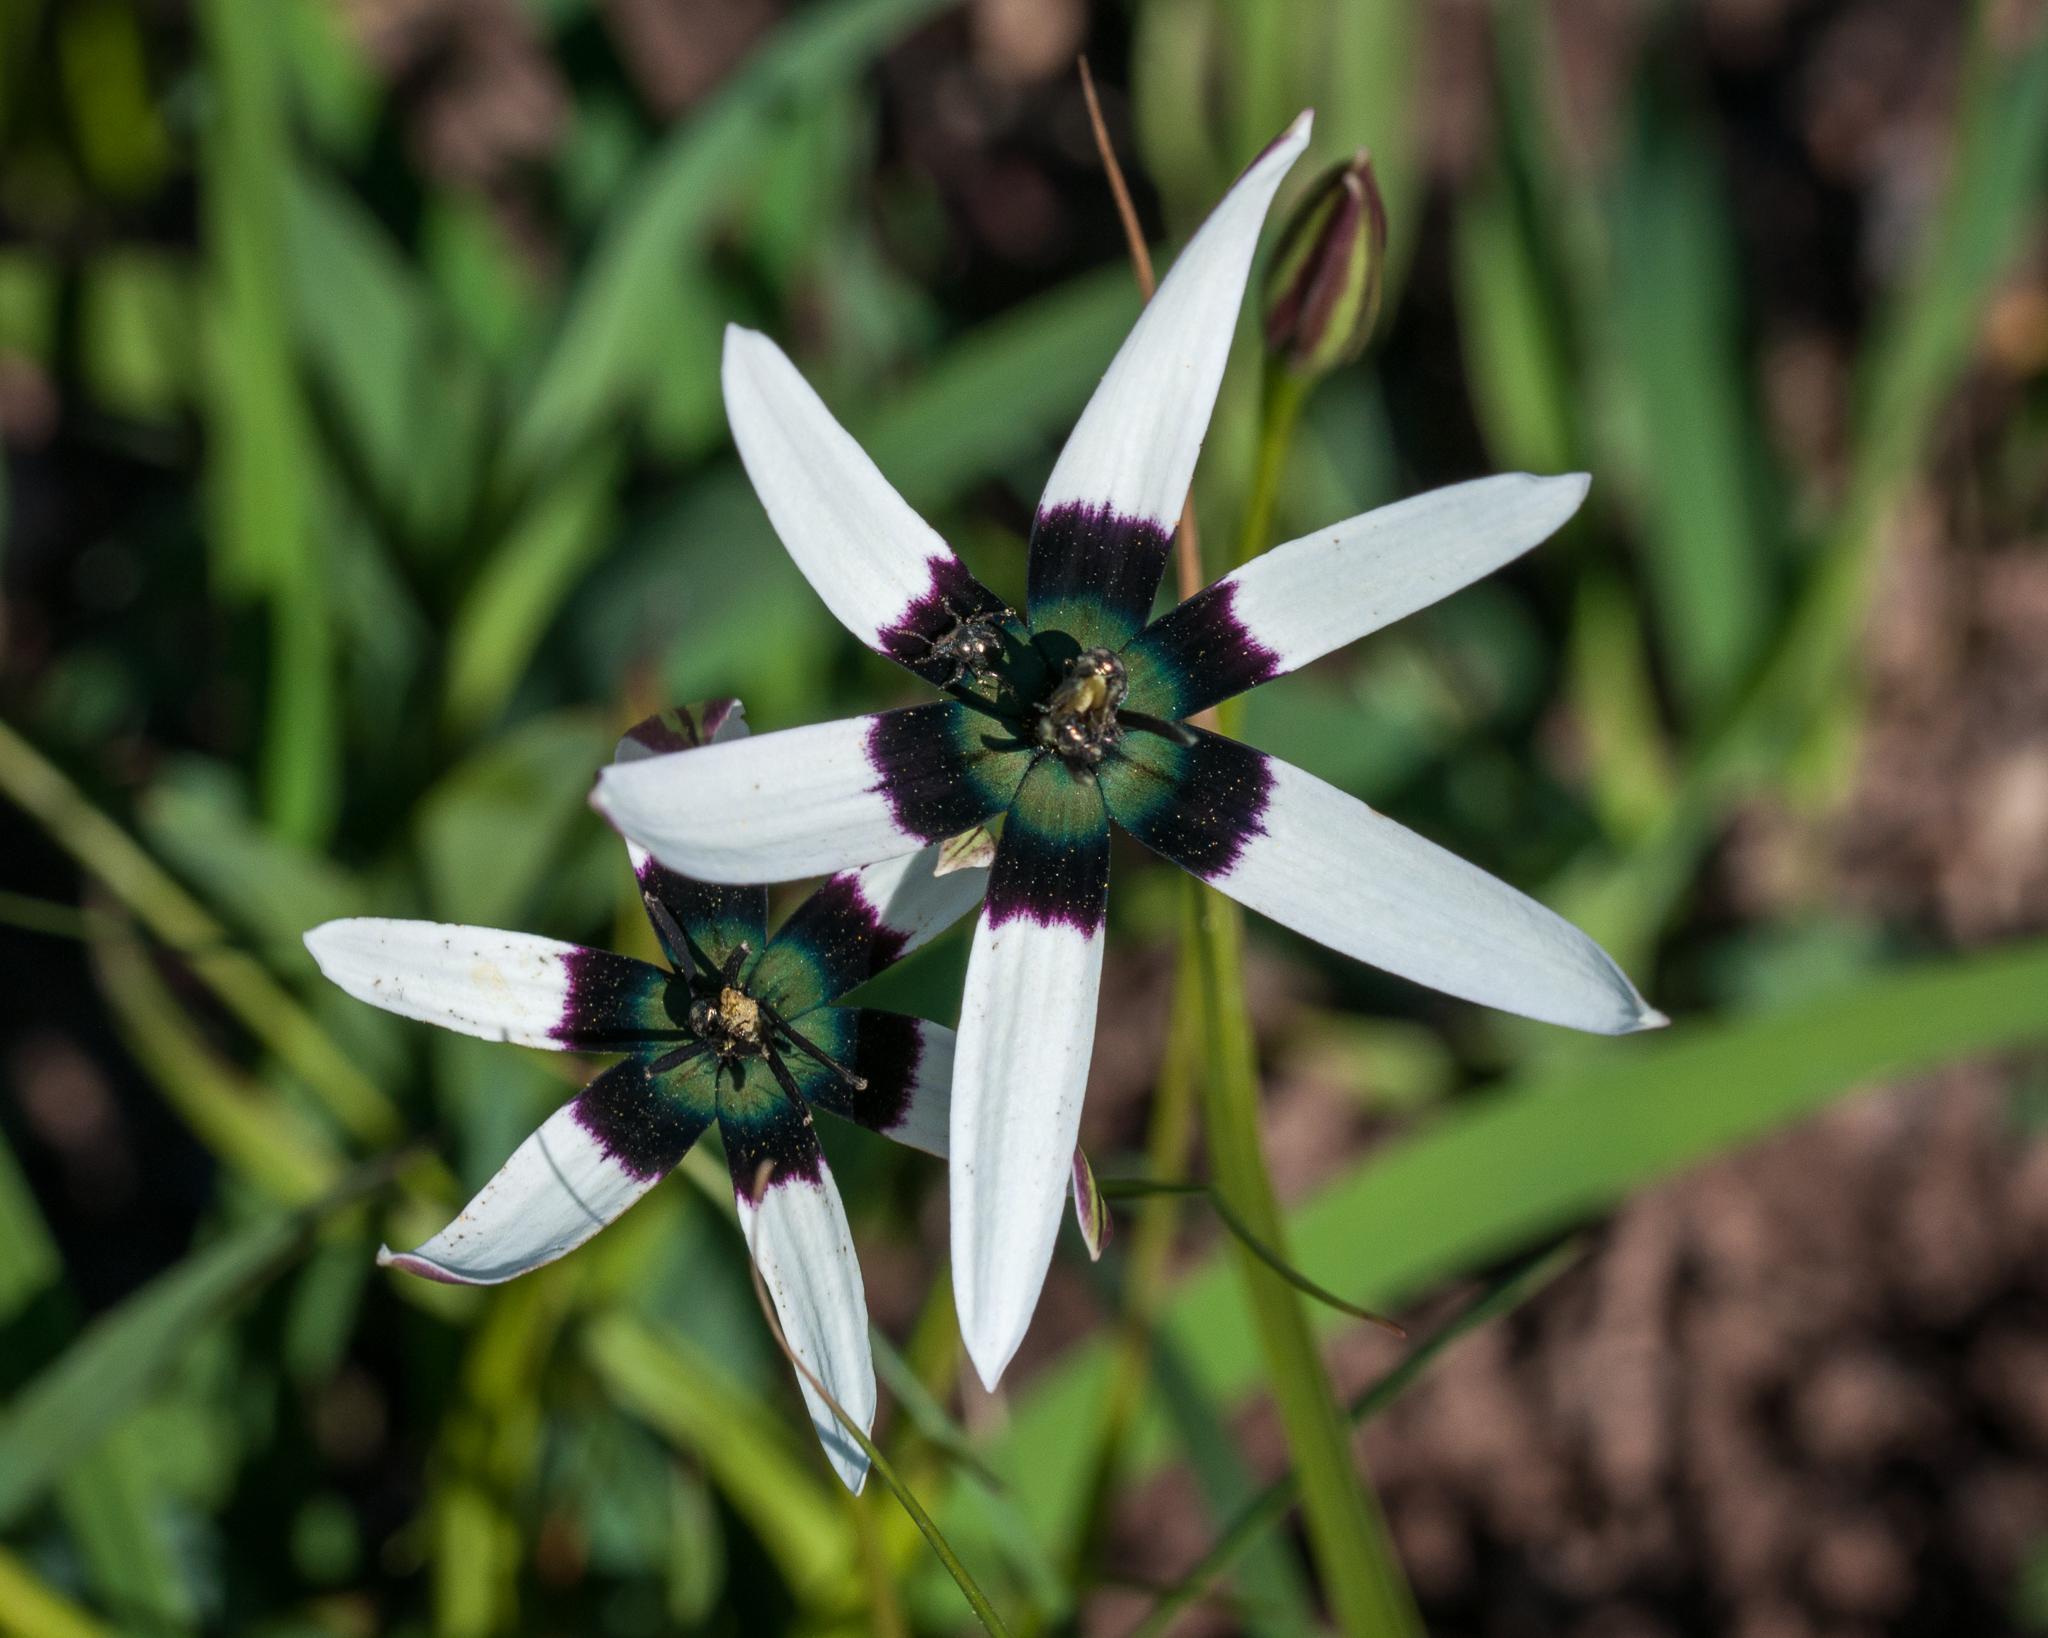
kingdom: Plantae
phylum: Tracheophyta
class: Liliopsida
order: Asparagales
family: Hypoxidaceae
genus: Pauridia
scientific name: Pauridia capensis
